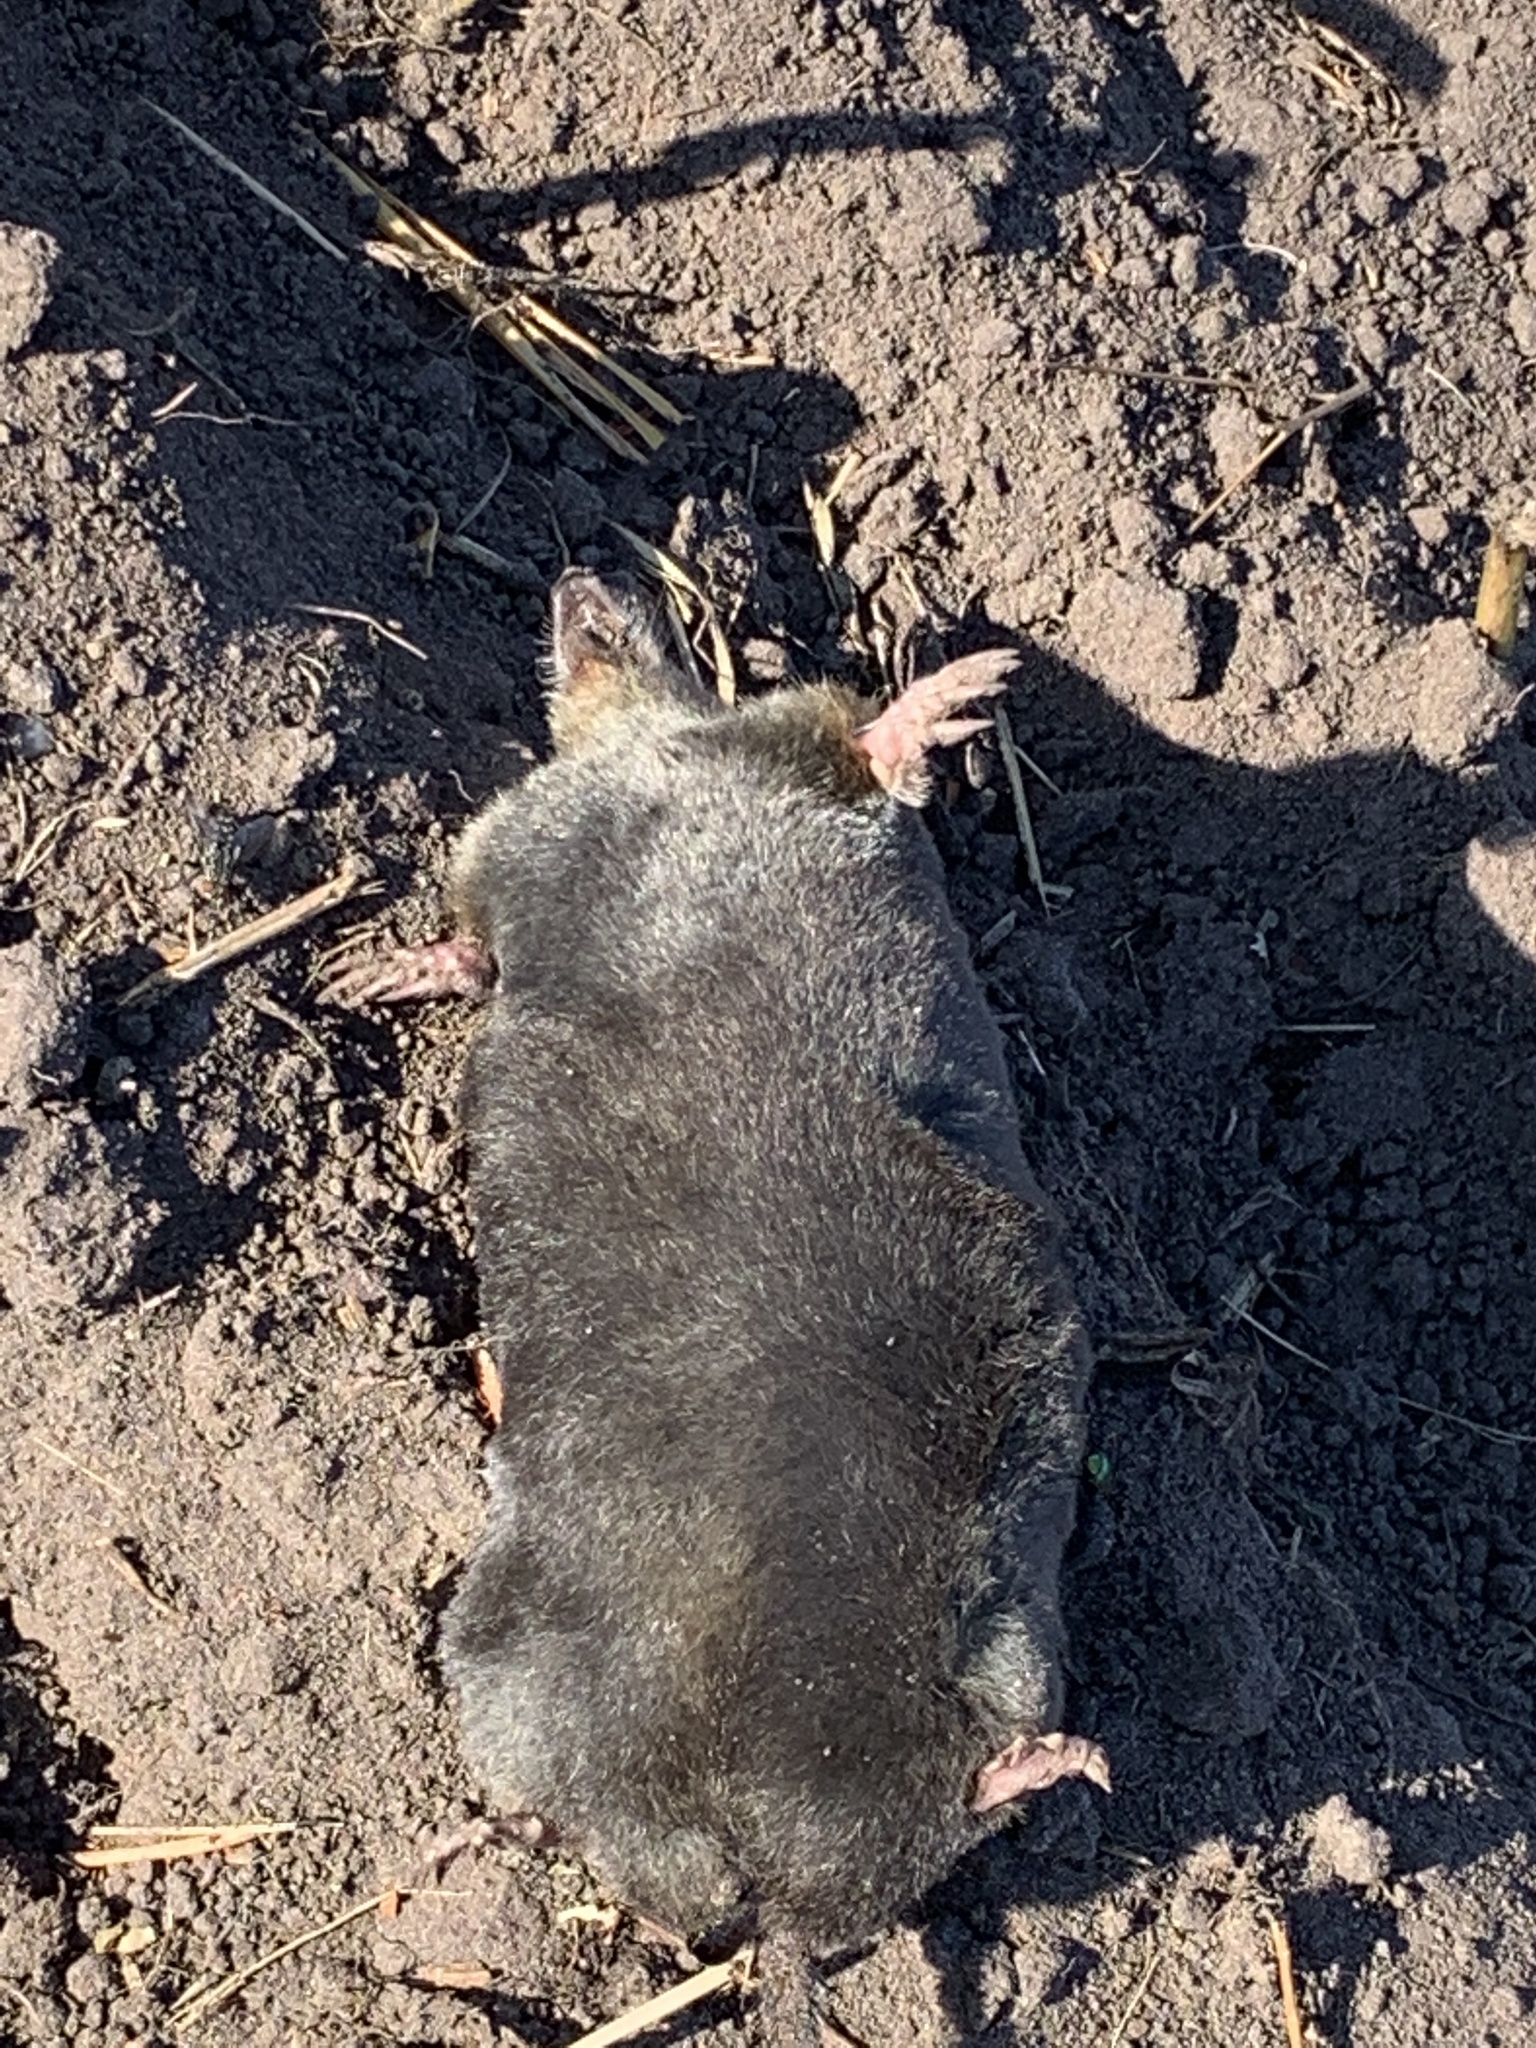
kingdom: Animalia
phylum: Chordata
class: Mammalia
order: Soricomorpha
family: Talpidae
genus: Talpa
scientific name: Talpa europaea
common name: European mole
